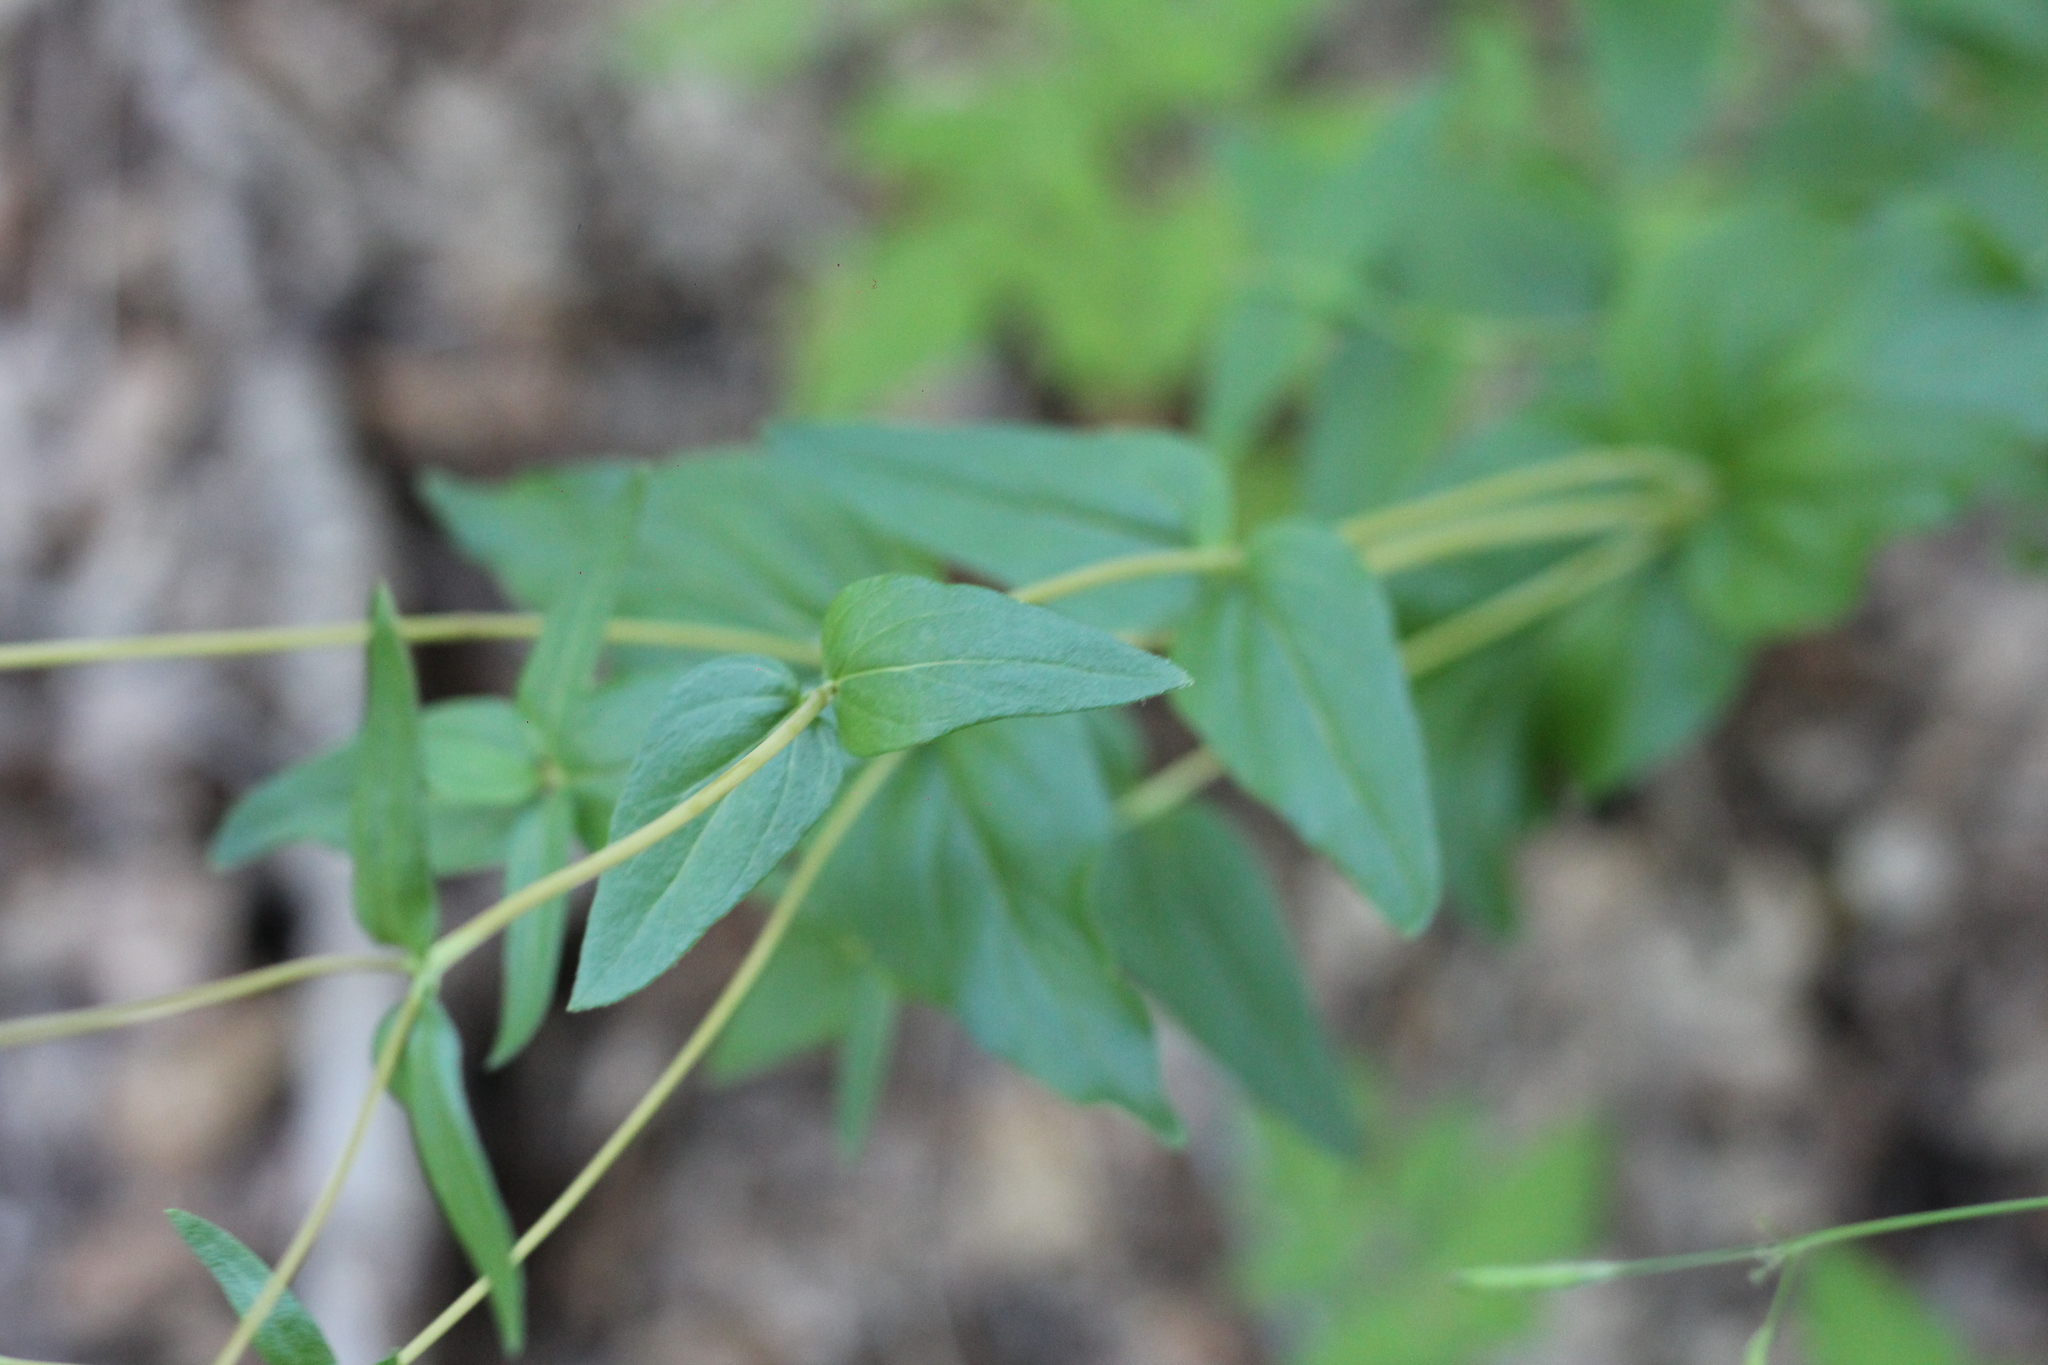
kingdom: Plantae
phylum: Tracheophyta
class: Magnoliopsida
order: Lamiales
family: Calceolariaceae
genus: Calceolaria
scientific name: Calceolaria undulata
